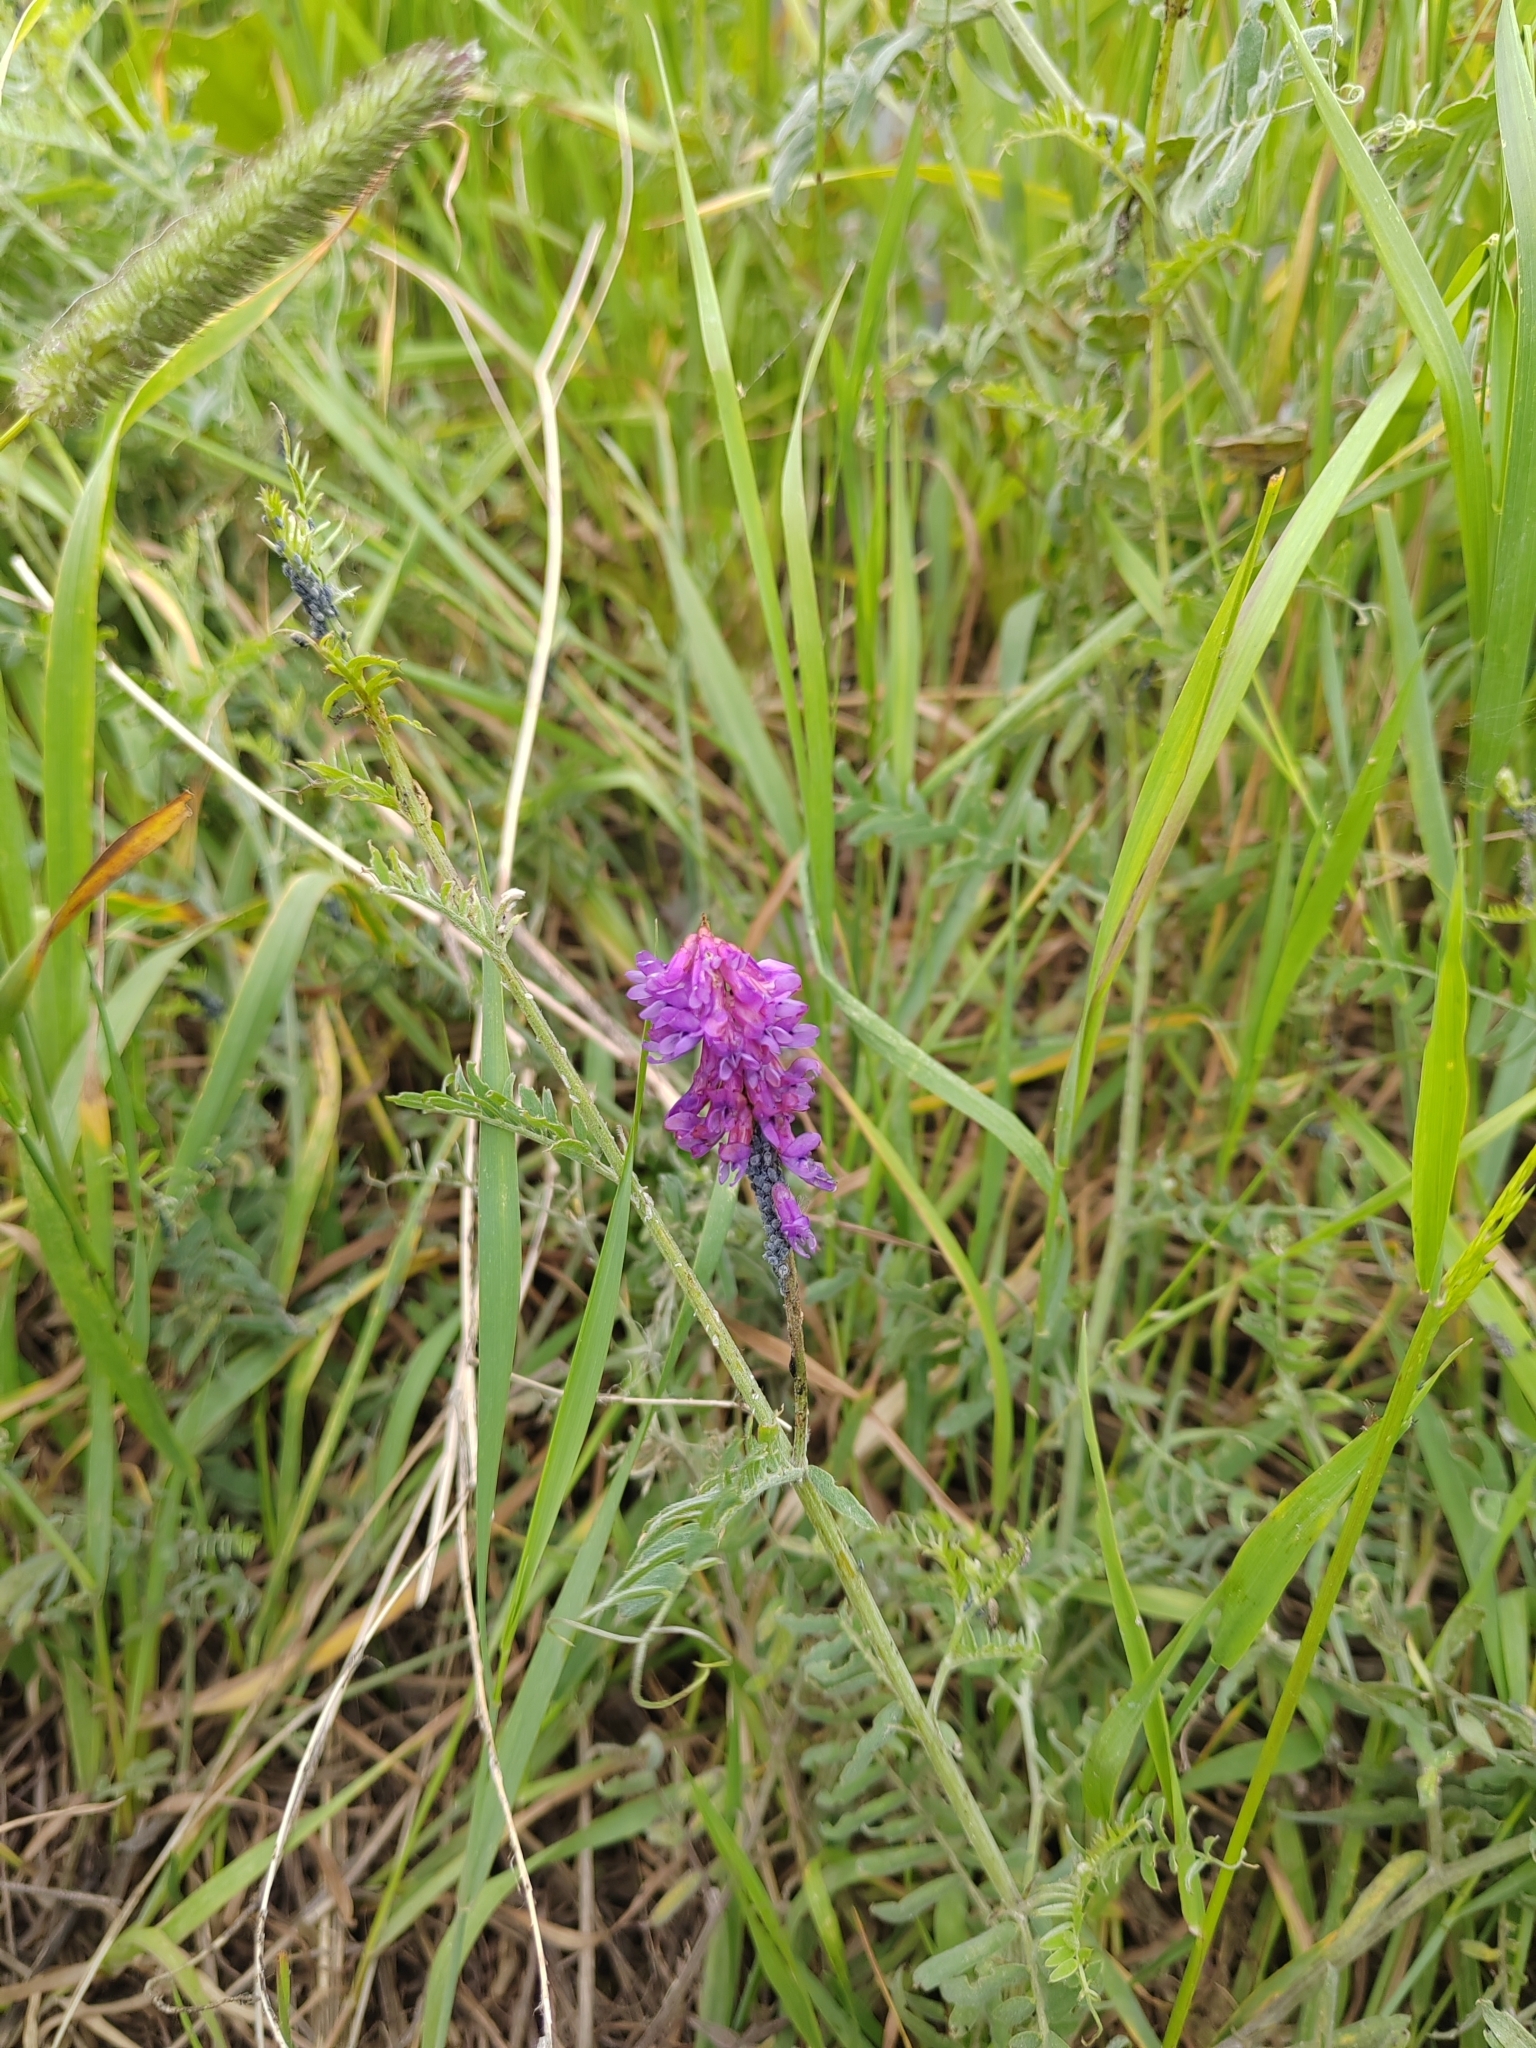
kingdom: Plantae
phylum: Tracheophyta
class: Magnoliopsida
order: Fabales
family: Fabaceae
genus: Vicia
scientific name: Vicia cracca
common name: Bird vetch
